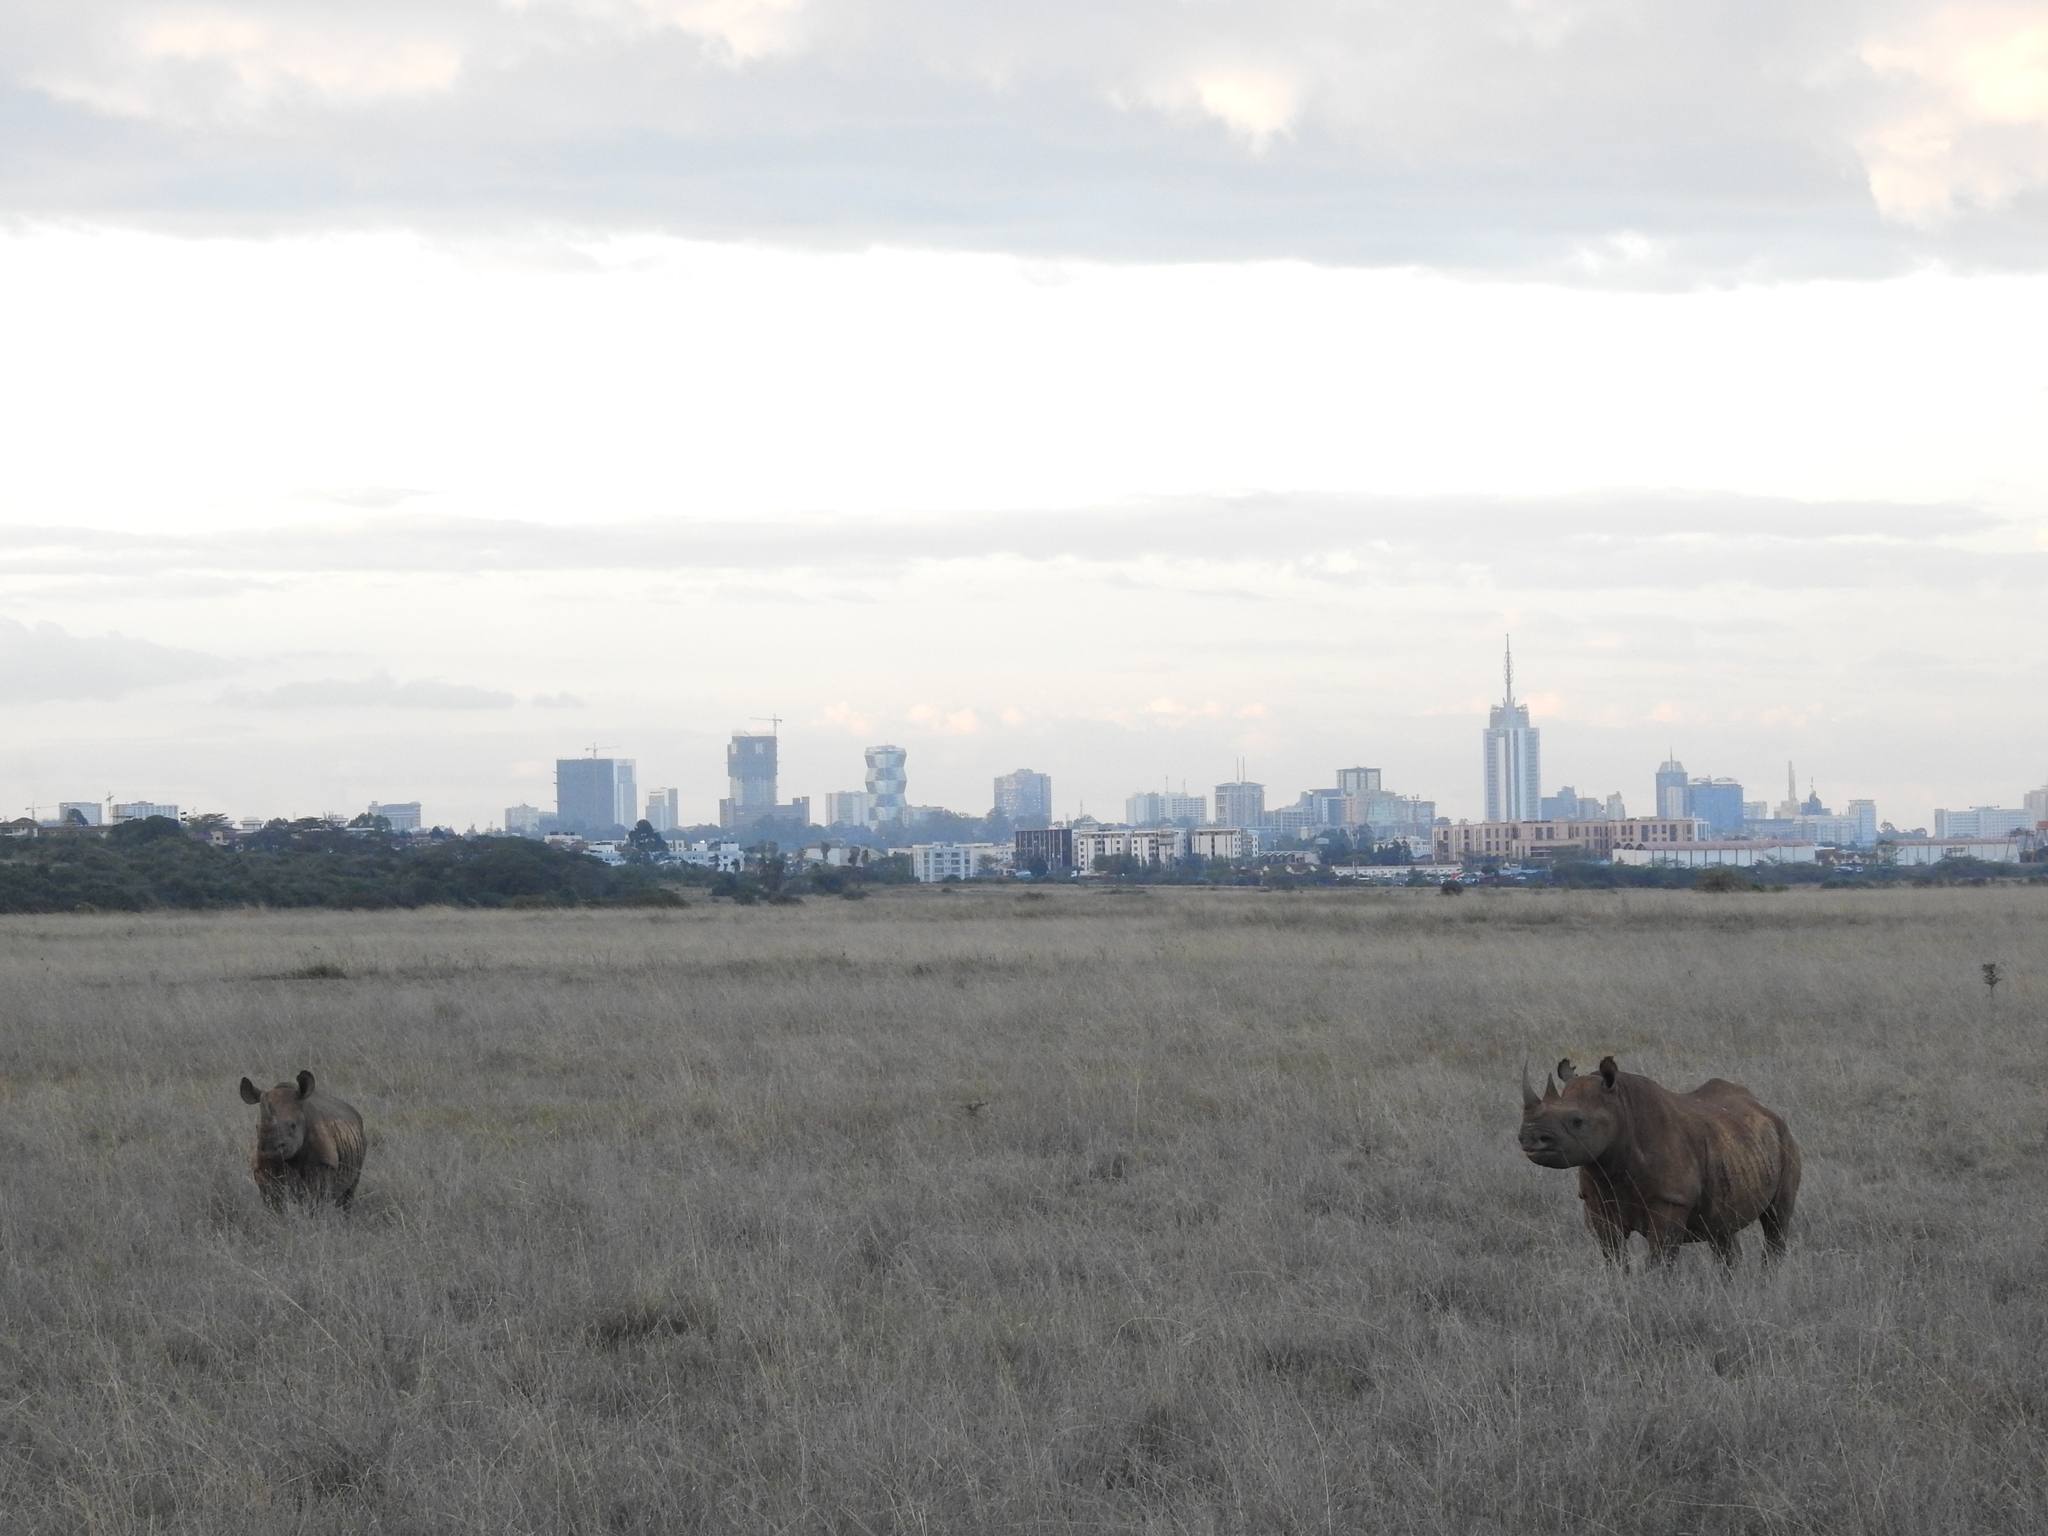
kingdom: Animalia
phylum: Chordata
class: Mammalia
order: Perissodactyla
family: Rhinocerotidae
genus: Diceros
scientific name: Diceros bicornis
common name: Black rhinoceros
